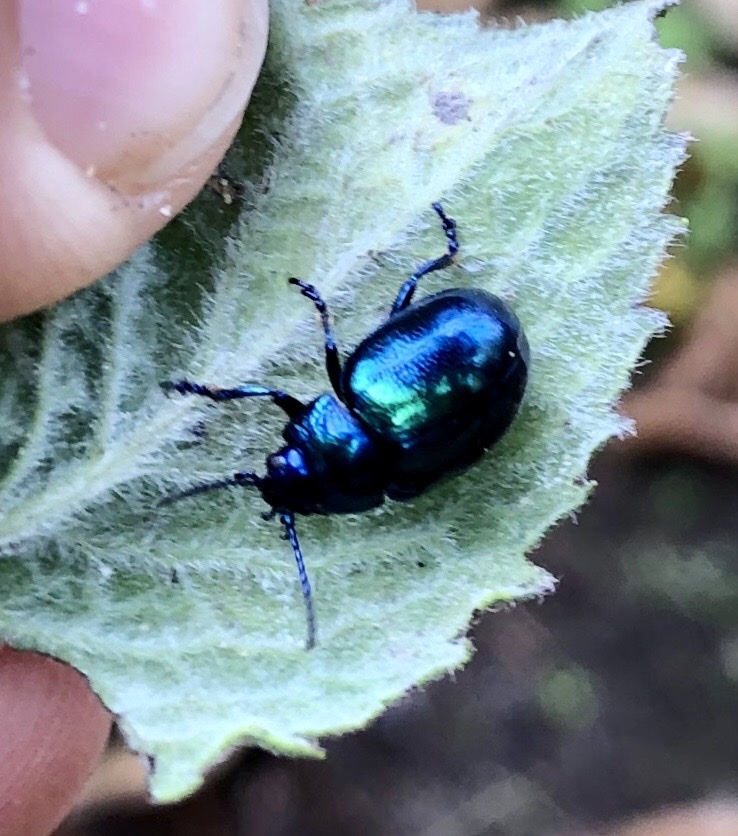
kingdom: Animalia
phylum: Arthropoda
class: Insecta
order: Coleoptera
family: Chrysomelidae
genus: Chrysolina
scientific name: Chrysolina coerulans
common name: Blue mint beetle
